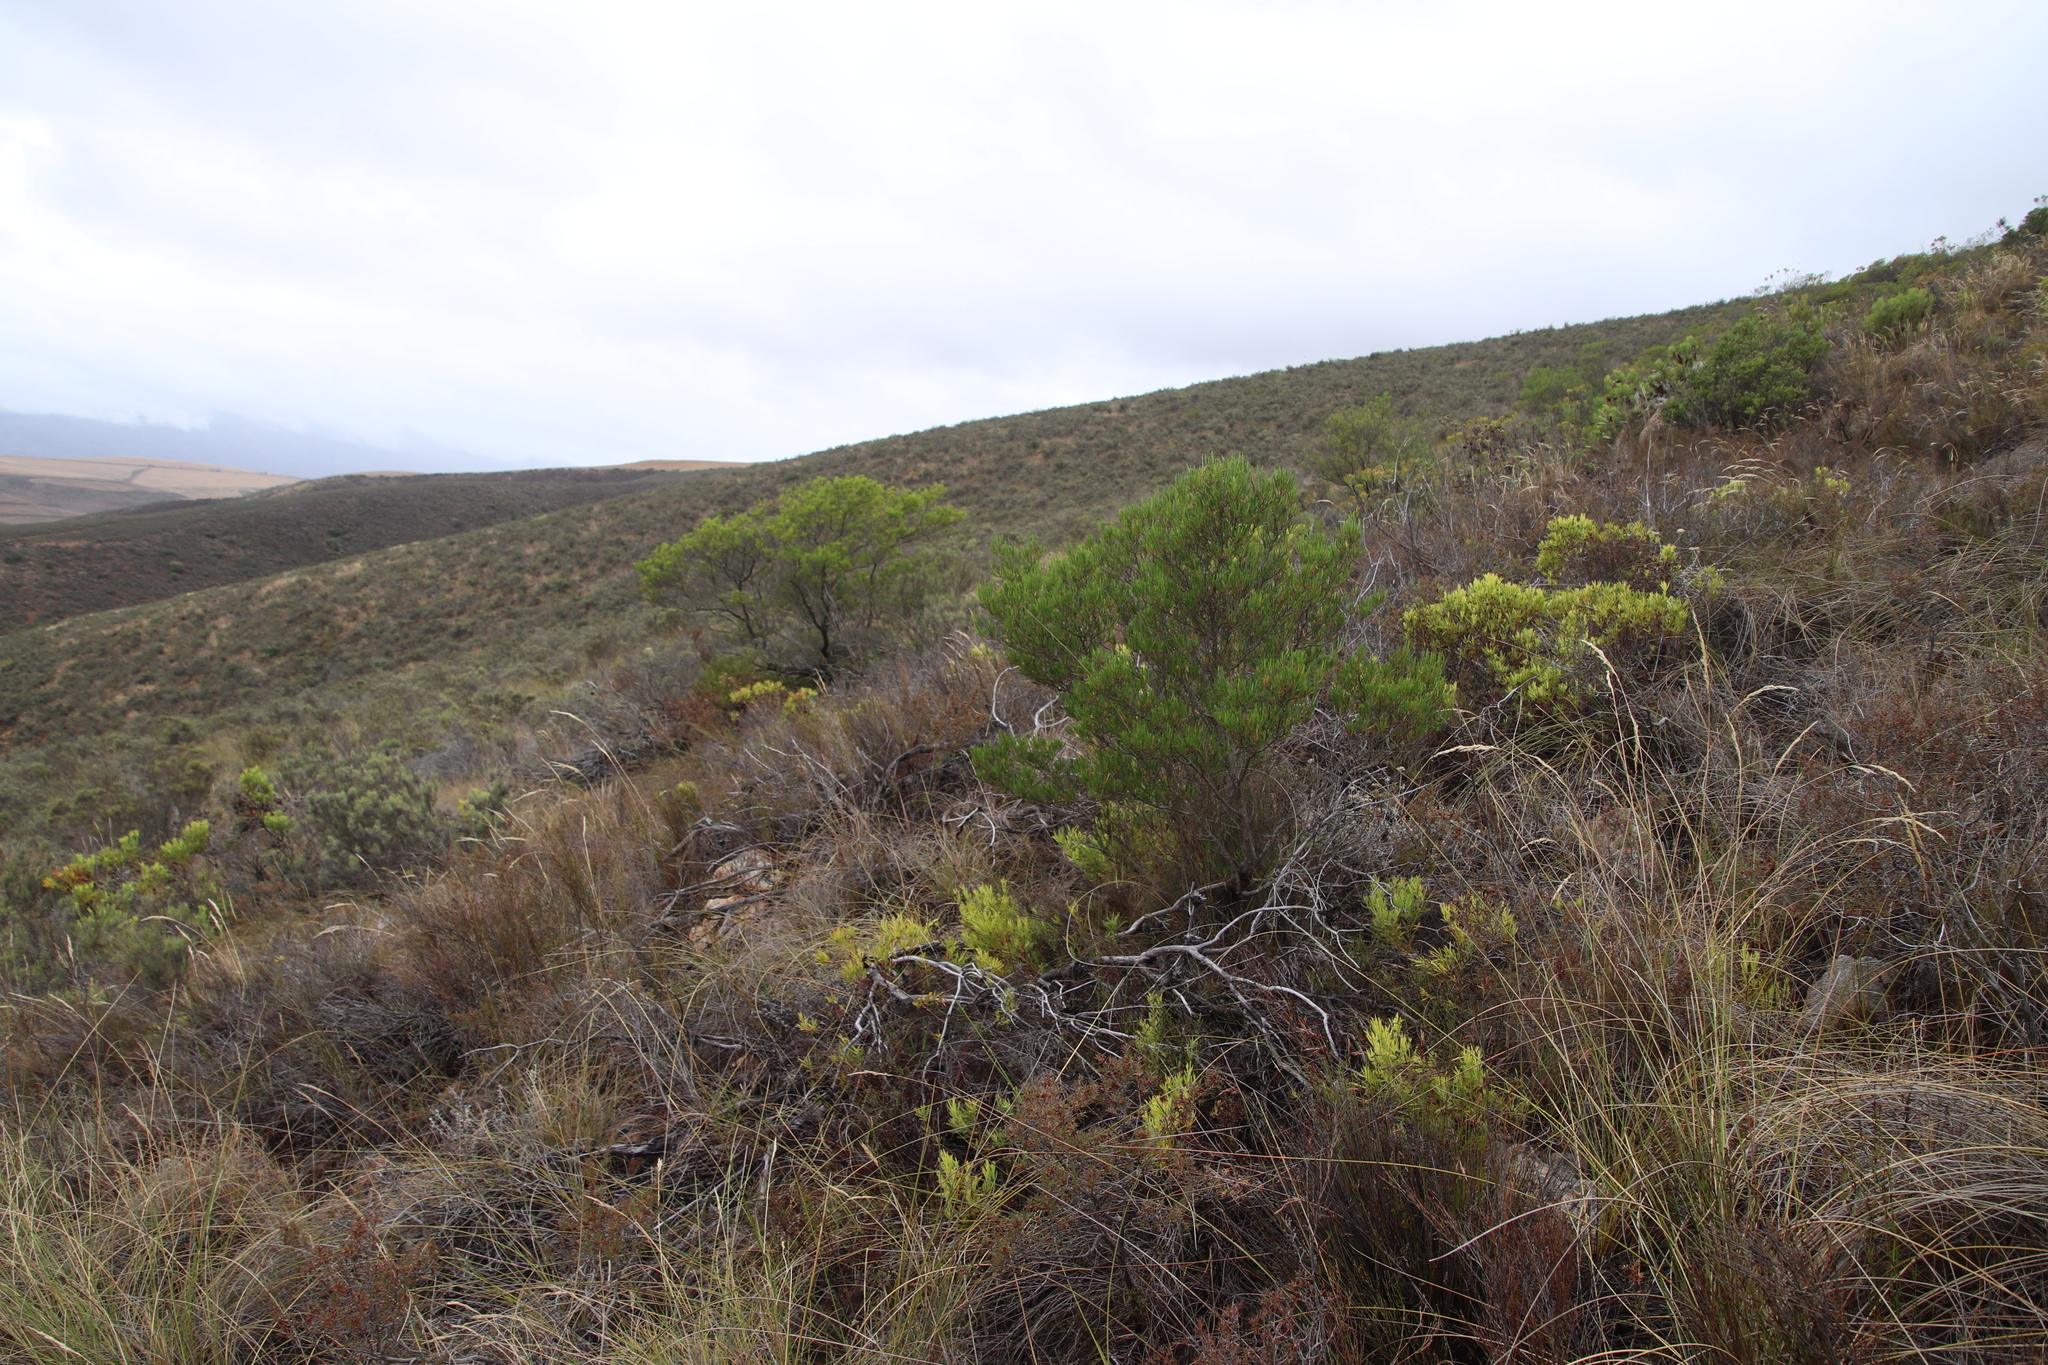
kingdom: Plantae
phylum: Tracheophyta
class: Magnoliopsida
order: Proteales
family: Proteaceae
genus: Leucadendron
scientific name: Leucadendron salignum
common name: Common sunshine conebush
